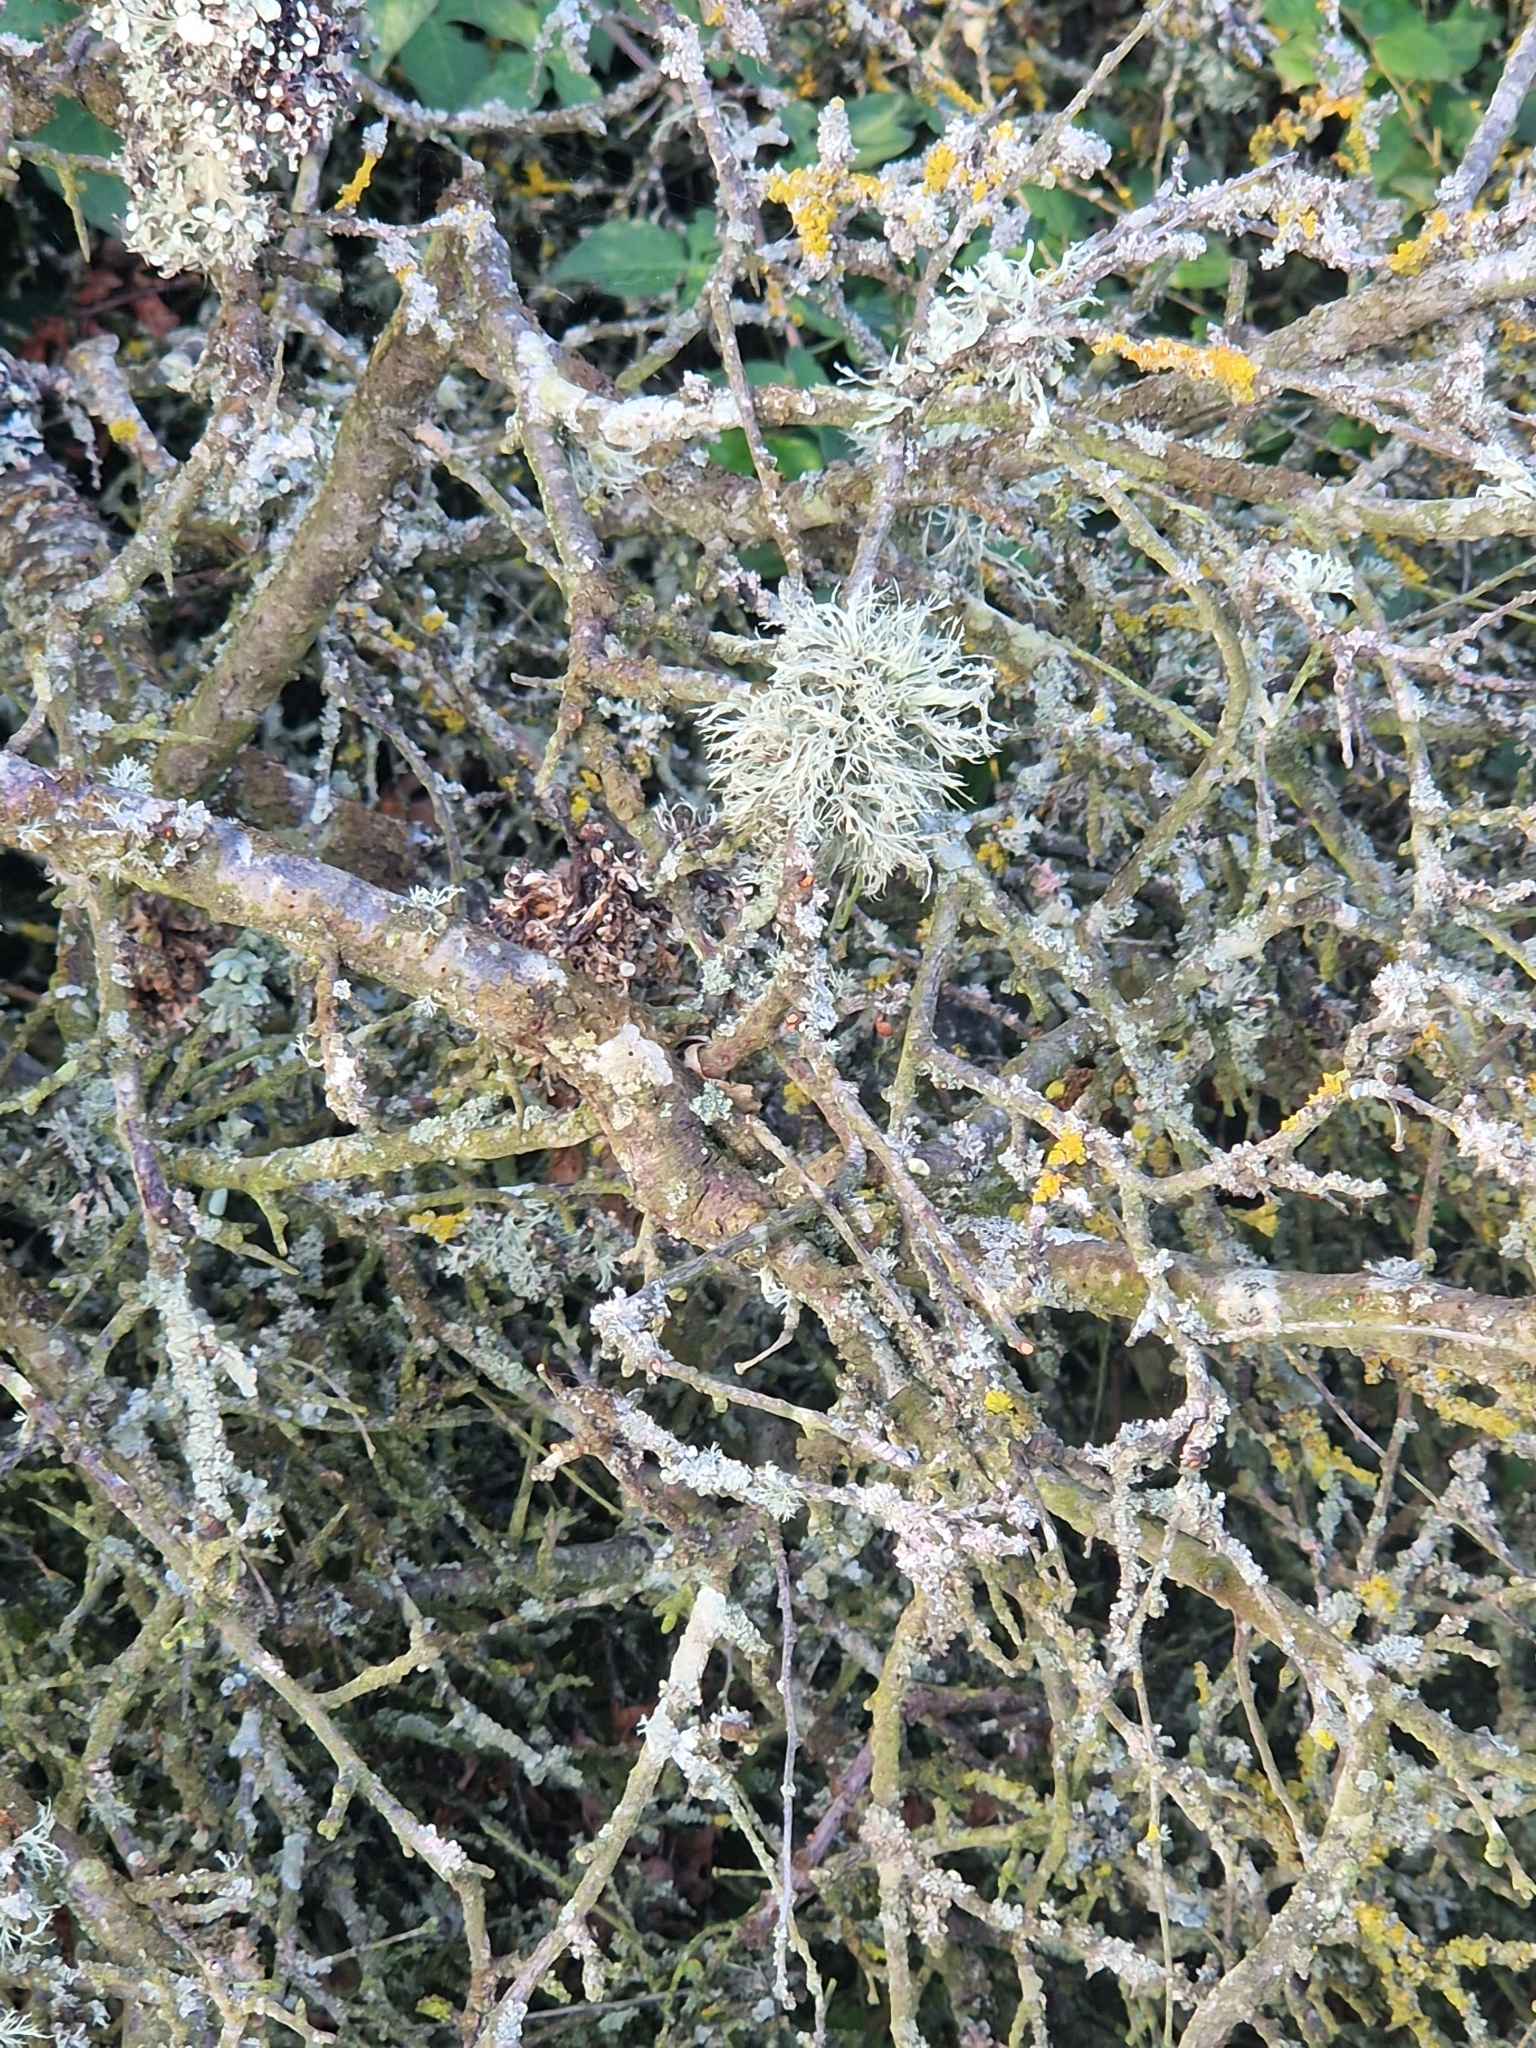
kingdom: Fungi
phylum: Ascomycota
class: Lecanoromycetes
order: Lecanorales
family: Ramalinaceae
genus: Ramalina
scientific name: Ramalina farinacea
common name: Farinose cartilage lichen
